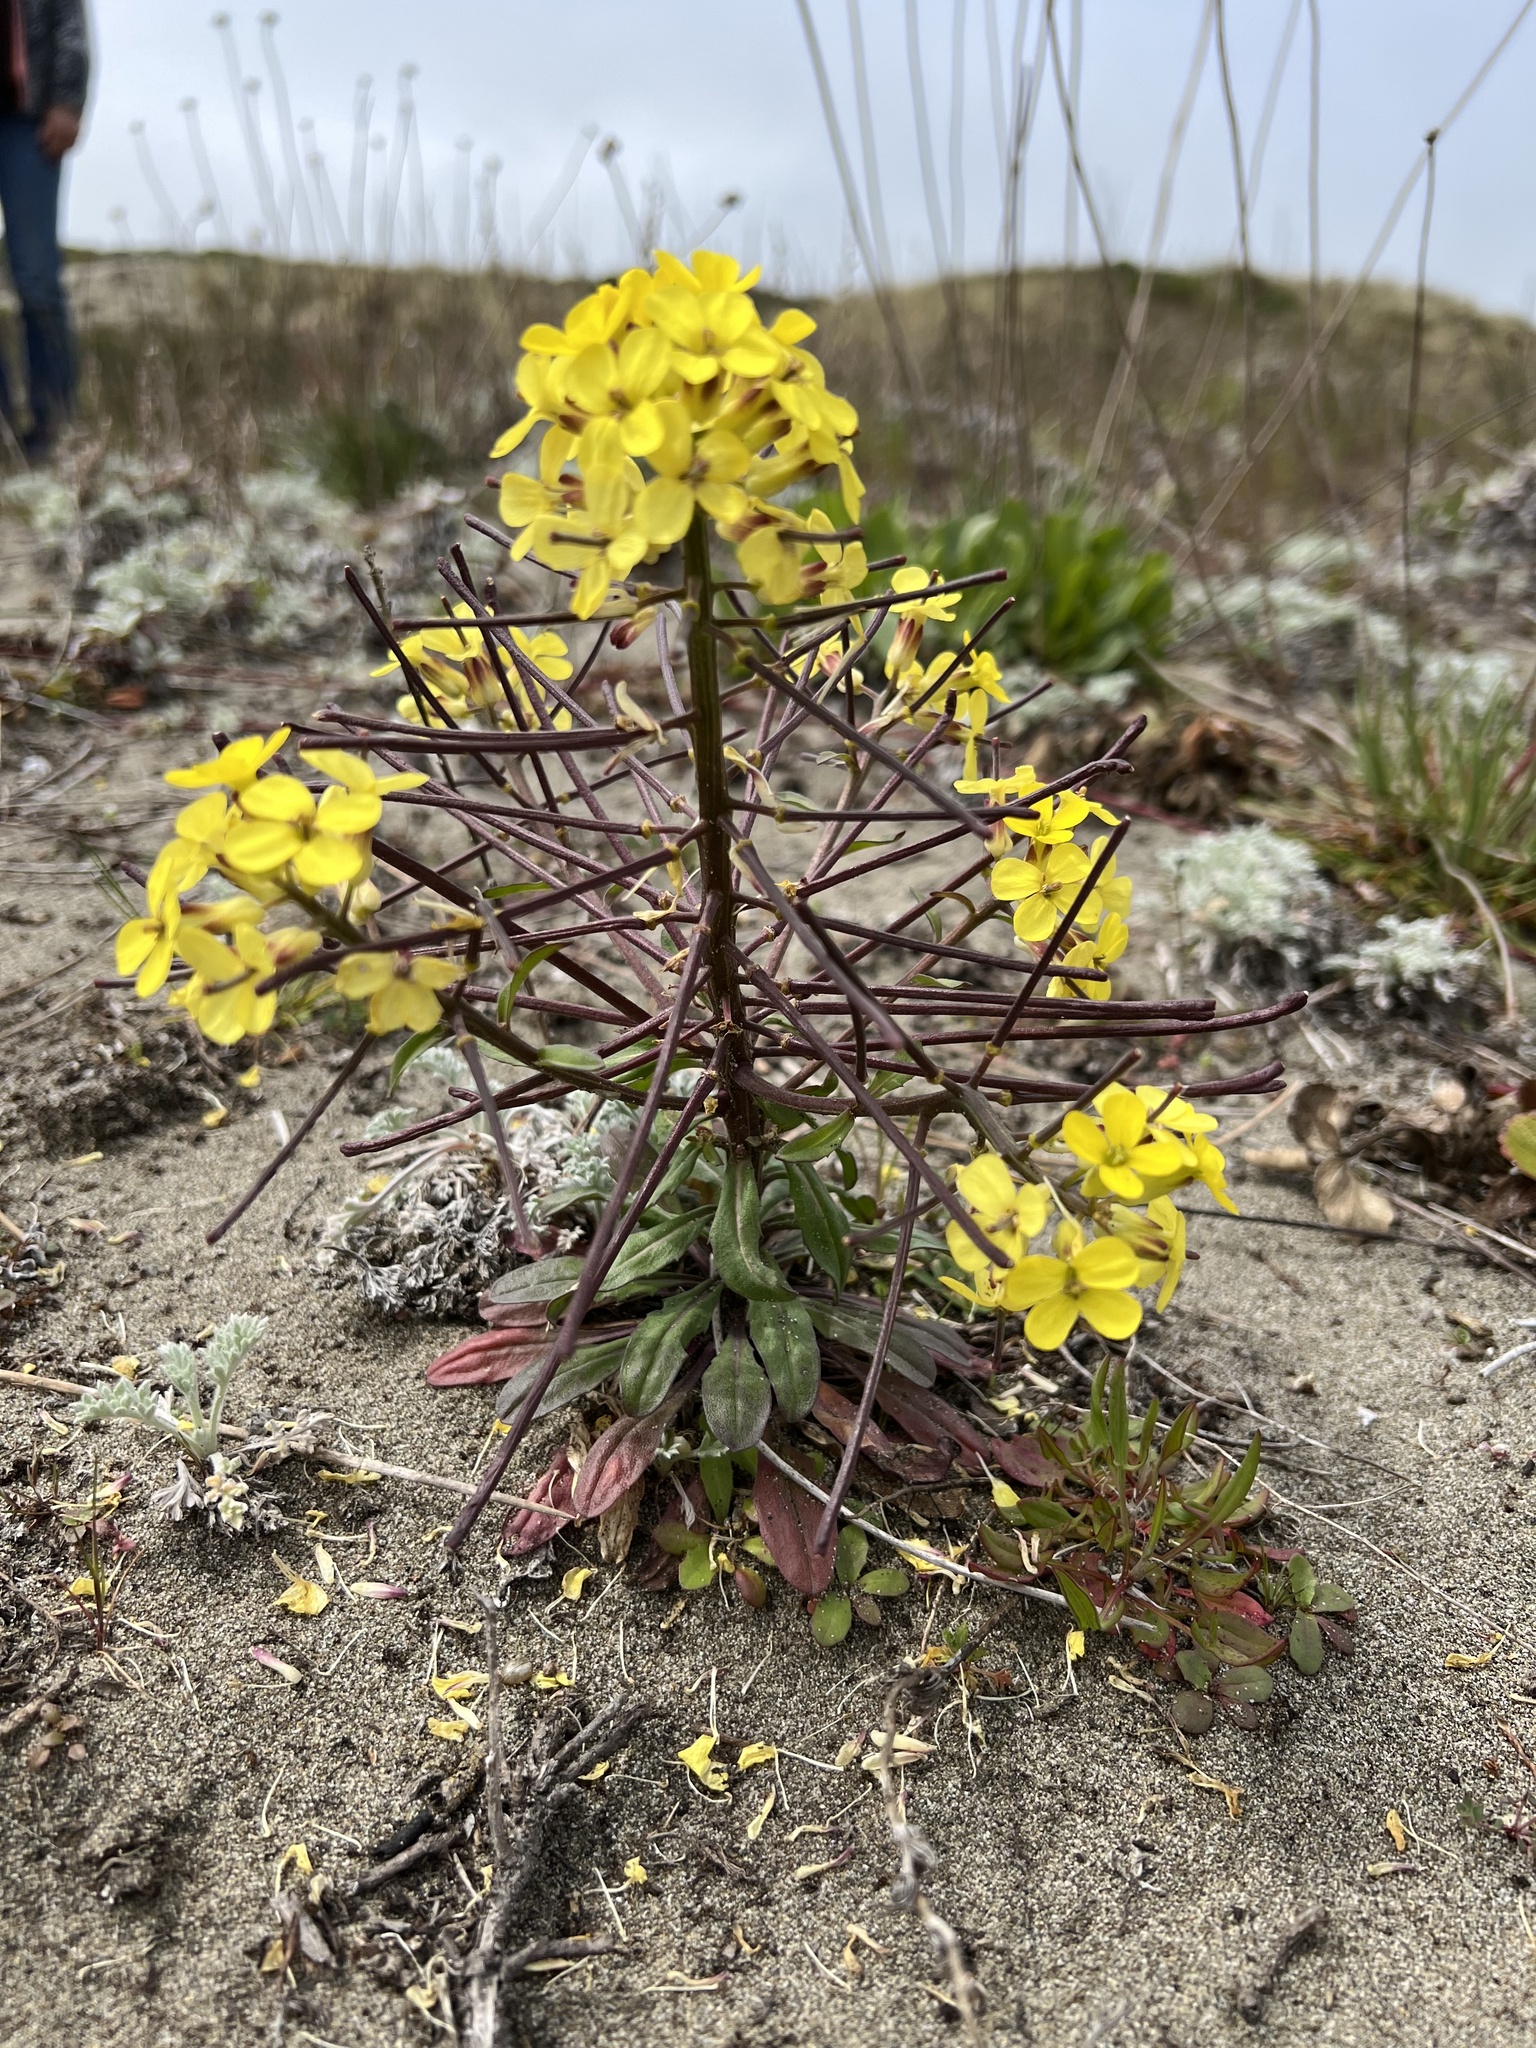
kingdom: Plantae
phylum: Tracheophyta
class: Magnoliopsida
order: Brassicales
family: Brassicaceae
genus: Erysimum
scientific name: Erysimum menziesii
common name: Menzies's wallflower
